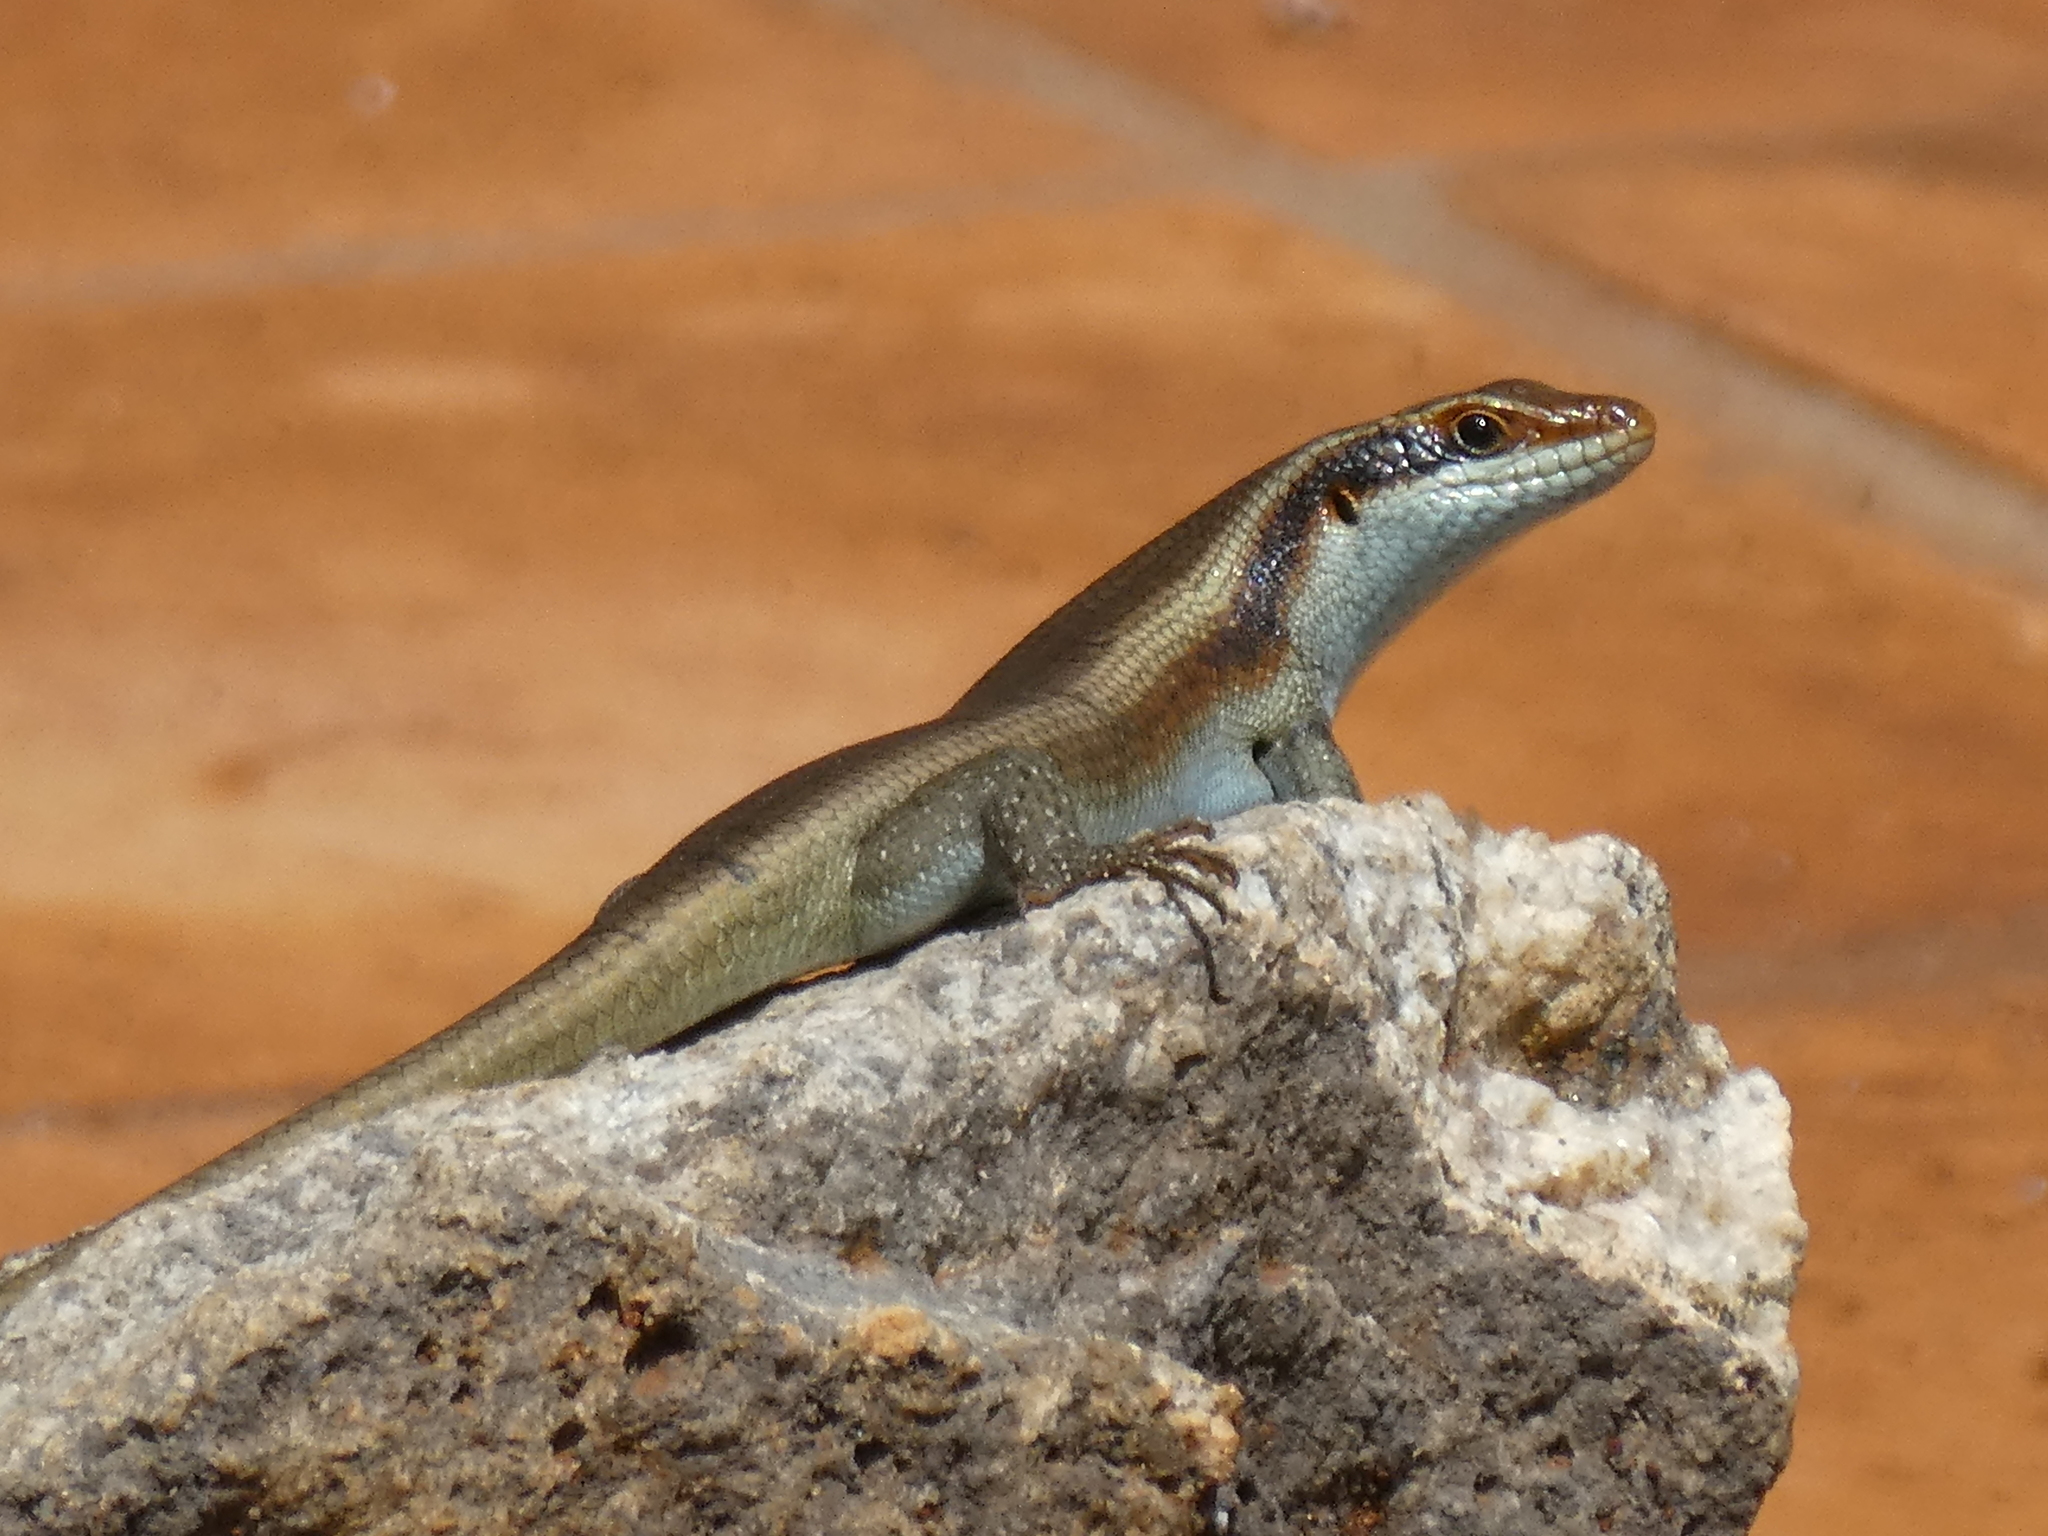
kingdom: Animalia
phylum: Chordata
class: Squamata
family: Scincidae
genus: Trachylepis
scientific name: Trachylepis wahlbergii
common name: Wahlberg’s striped skink
